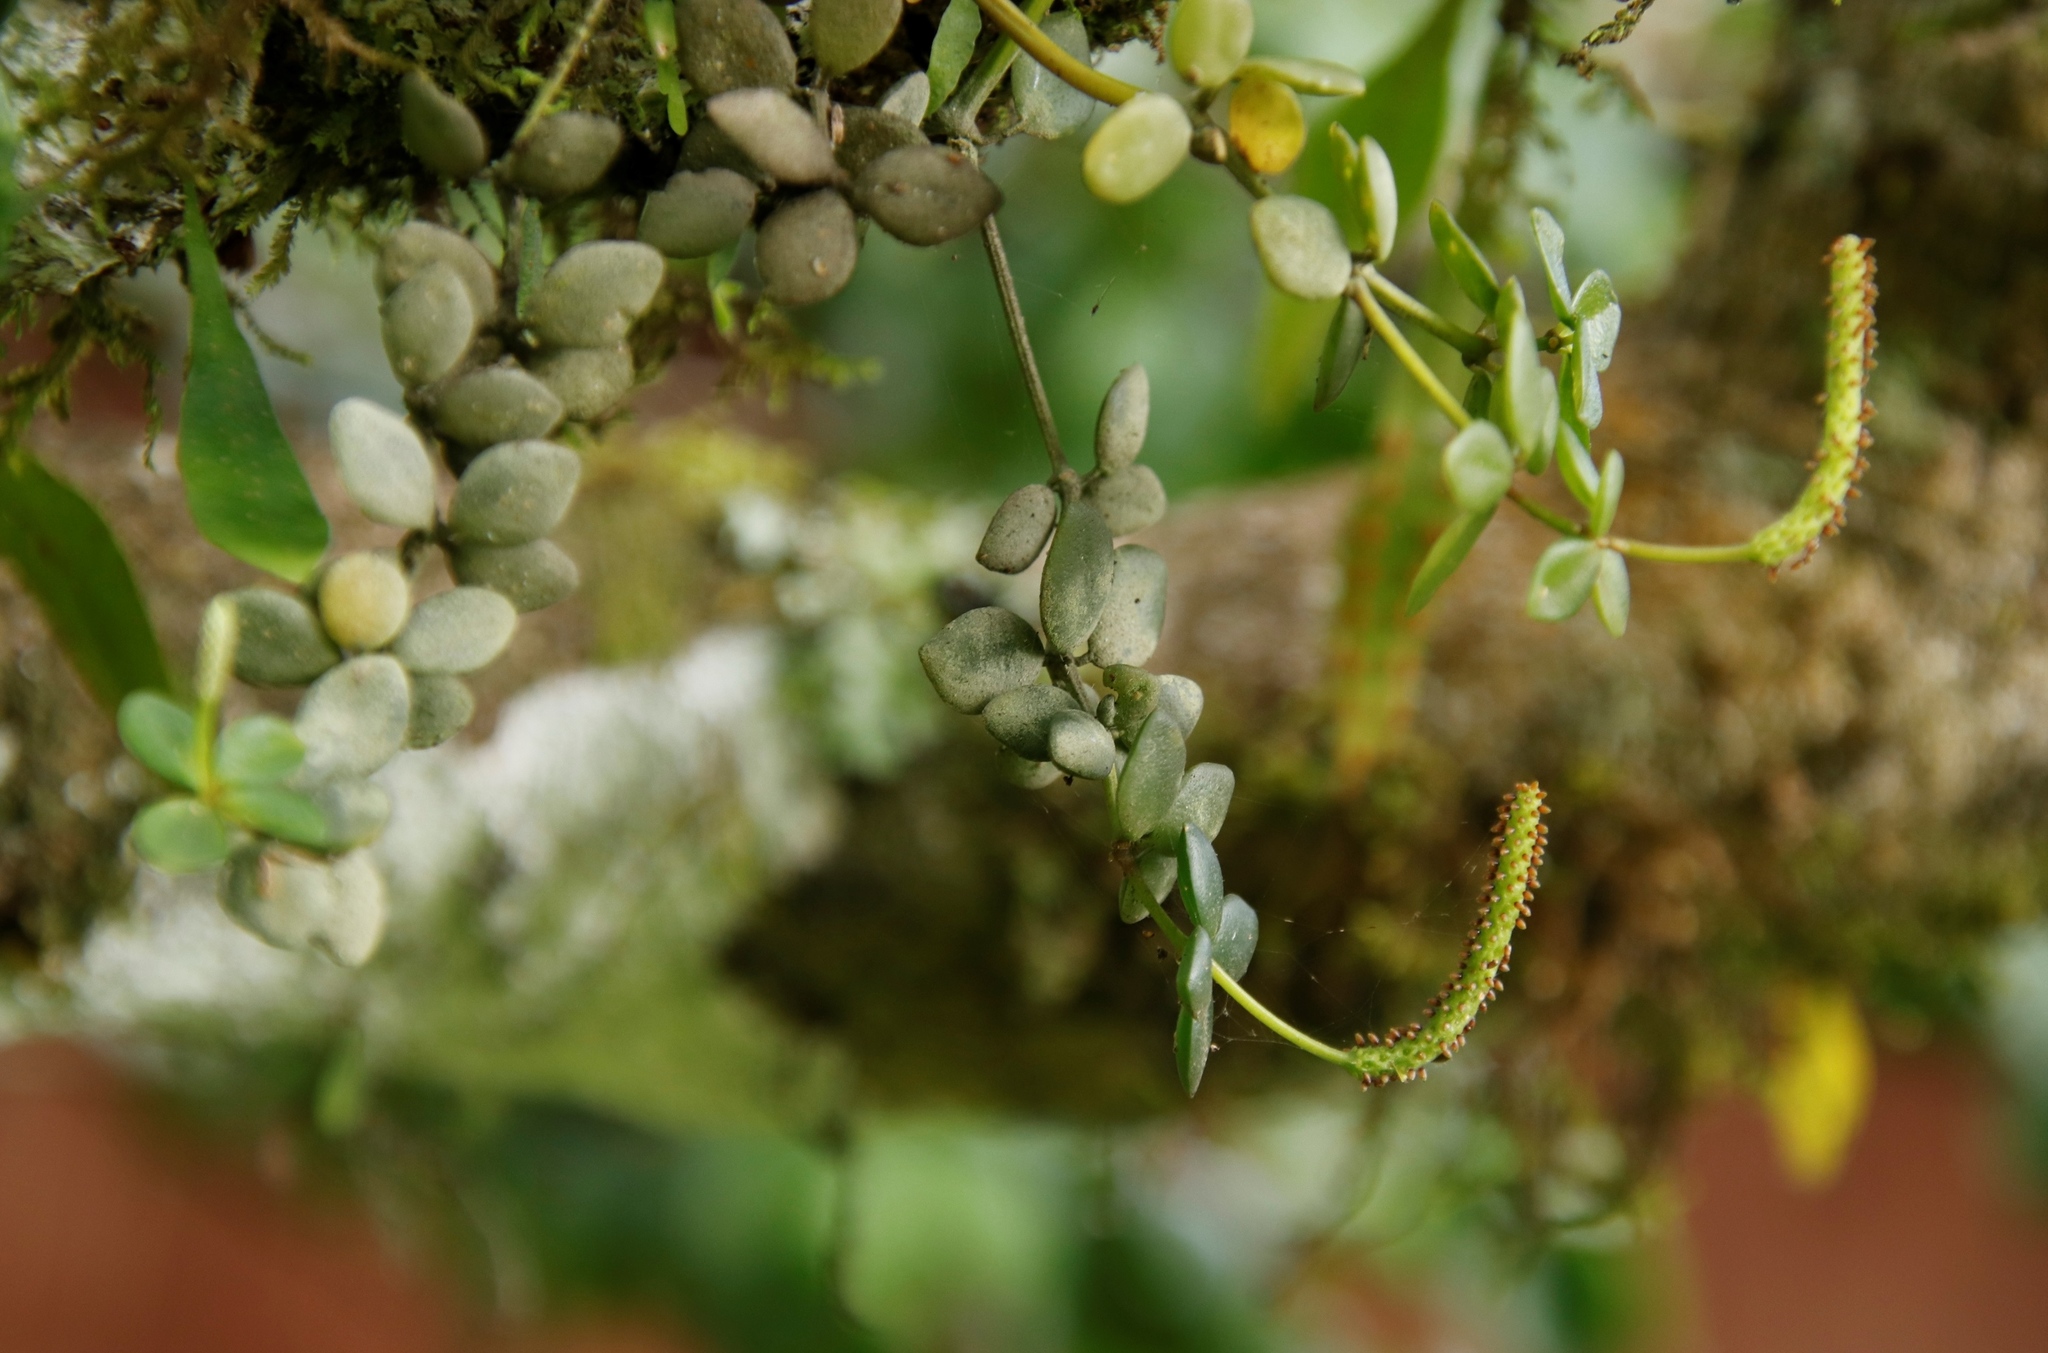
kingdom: Plantae
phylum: Tracheophyta
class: Magnoliopsida
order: Piperales
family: Piperaceae
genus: Peperomia
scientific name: Peperomia tetraphylla
